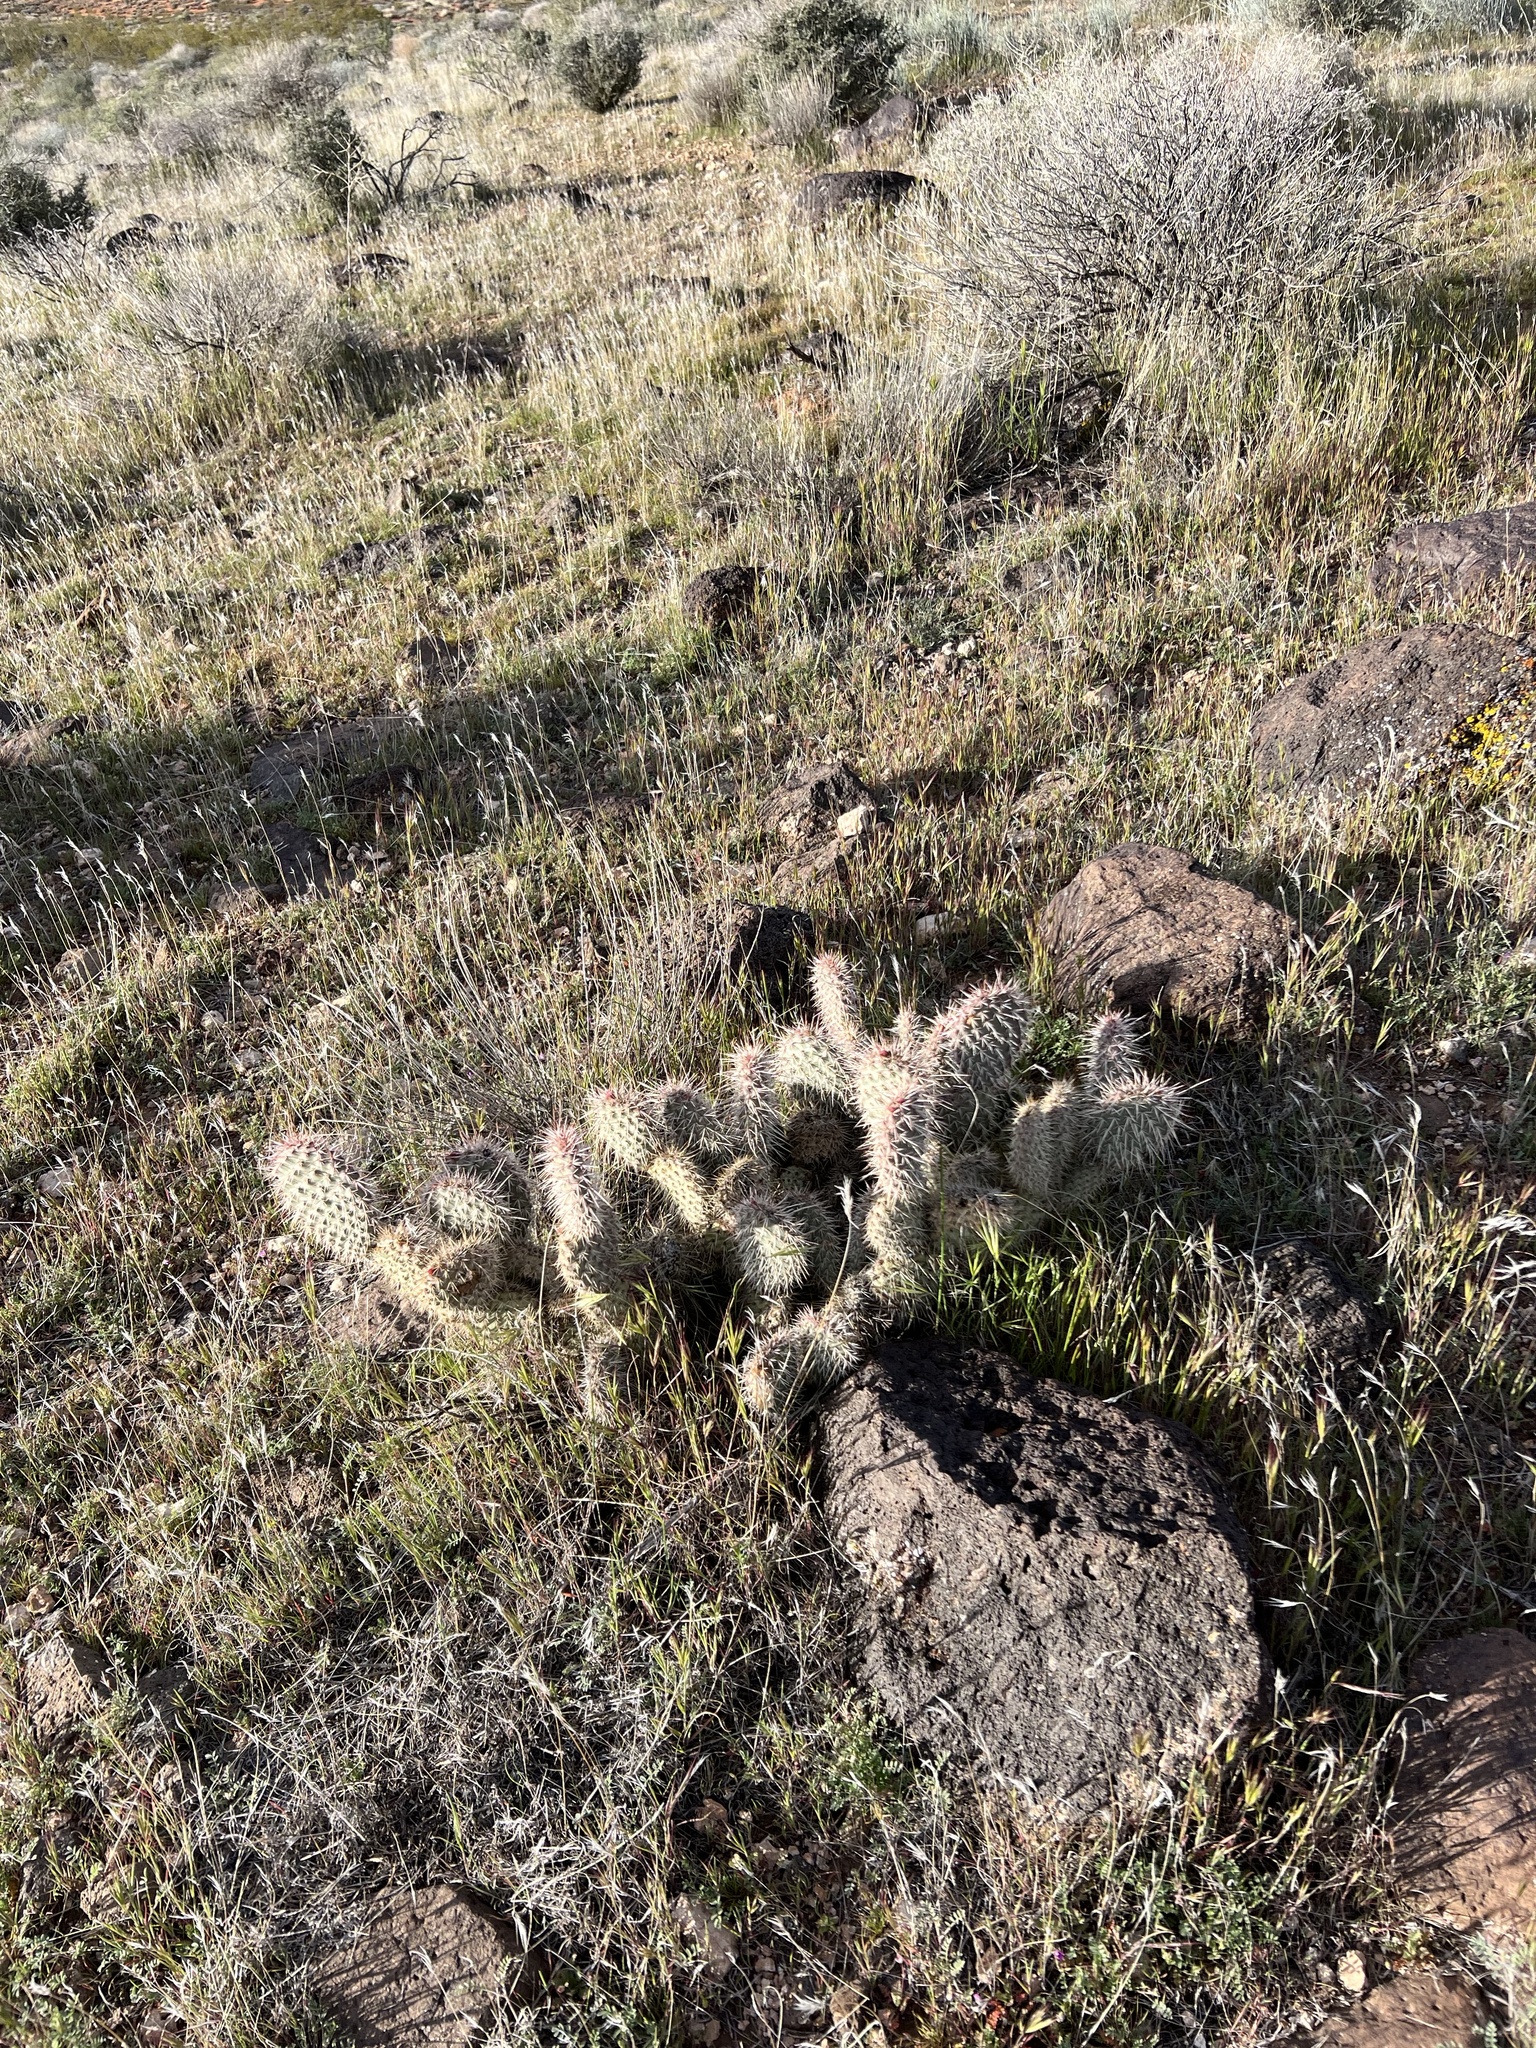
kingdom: Plantae
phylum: Tracheophyta
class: Magnoliopsida
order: Caryophyllales
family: Cactaceae
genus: Opuntia
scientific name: Opuntia polyacantha
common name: Plains prickly-pear
